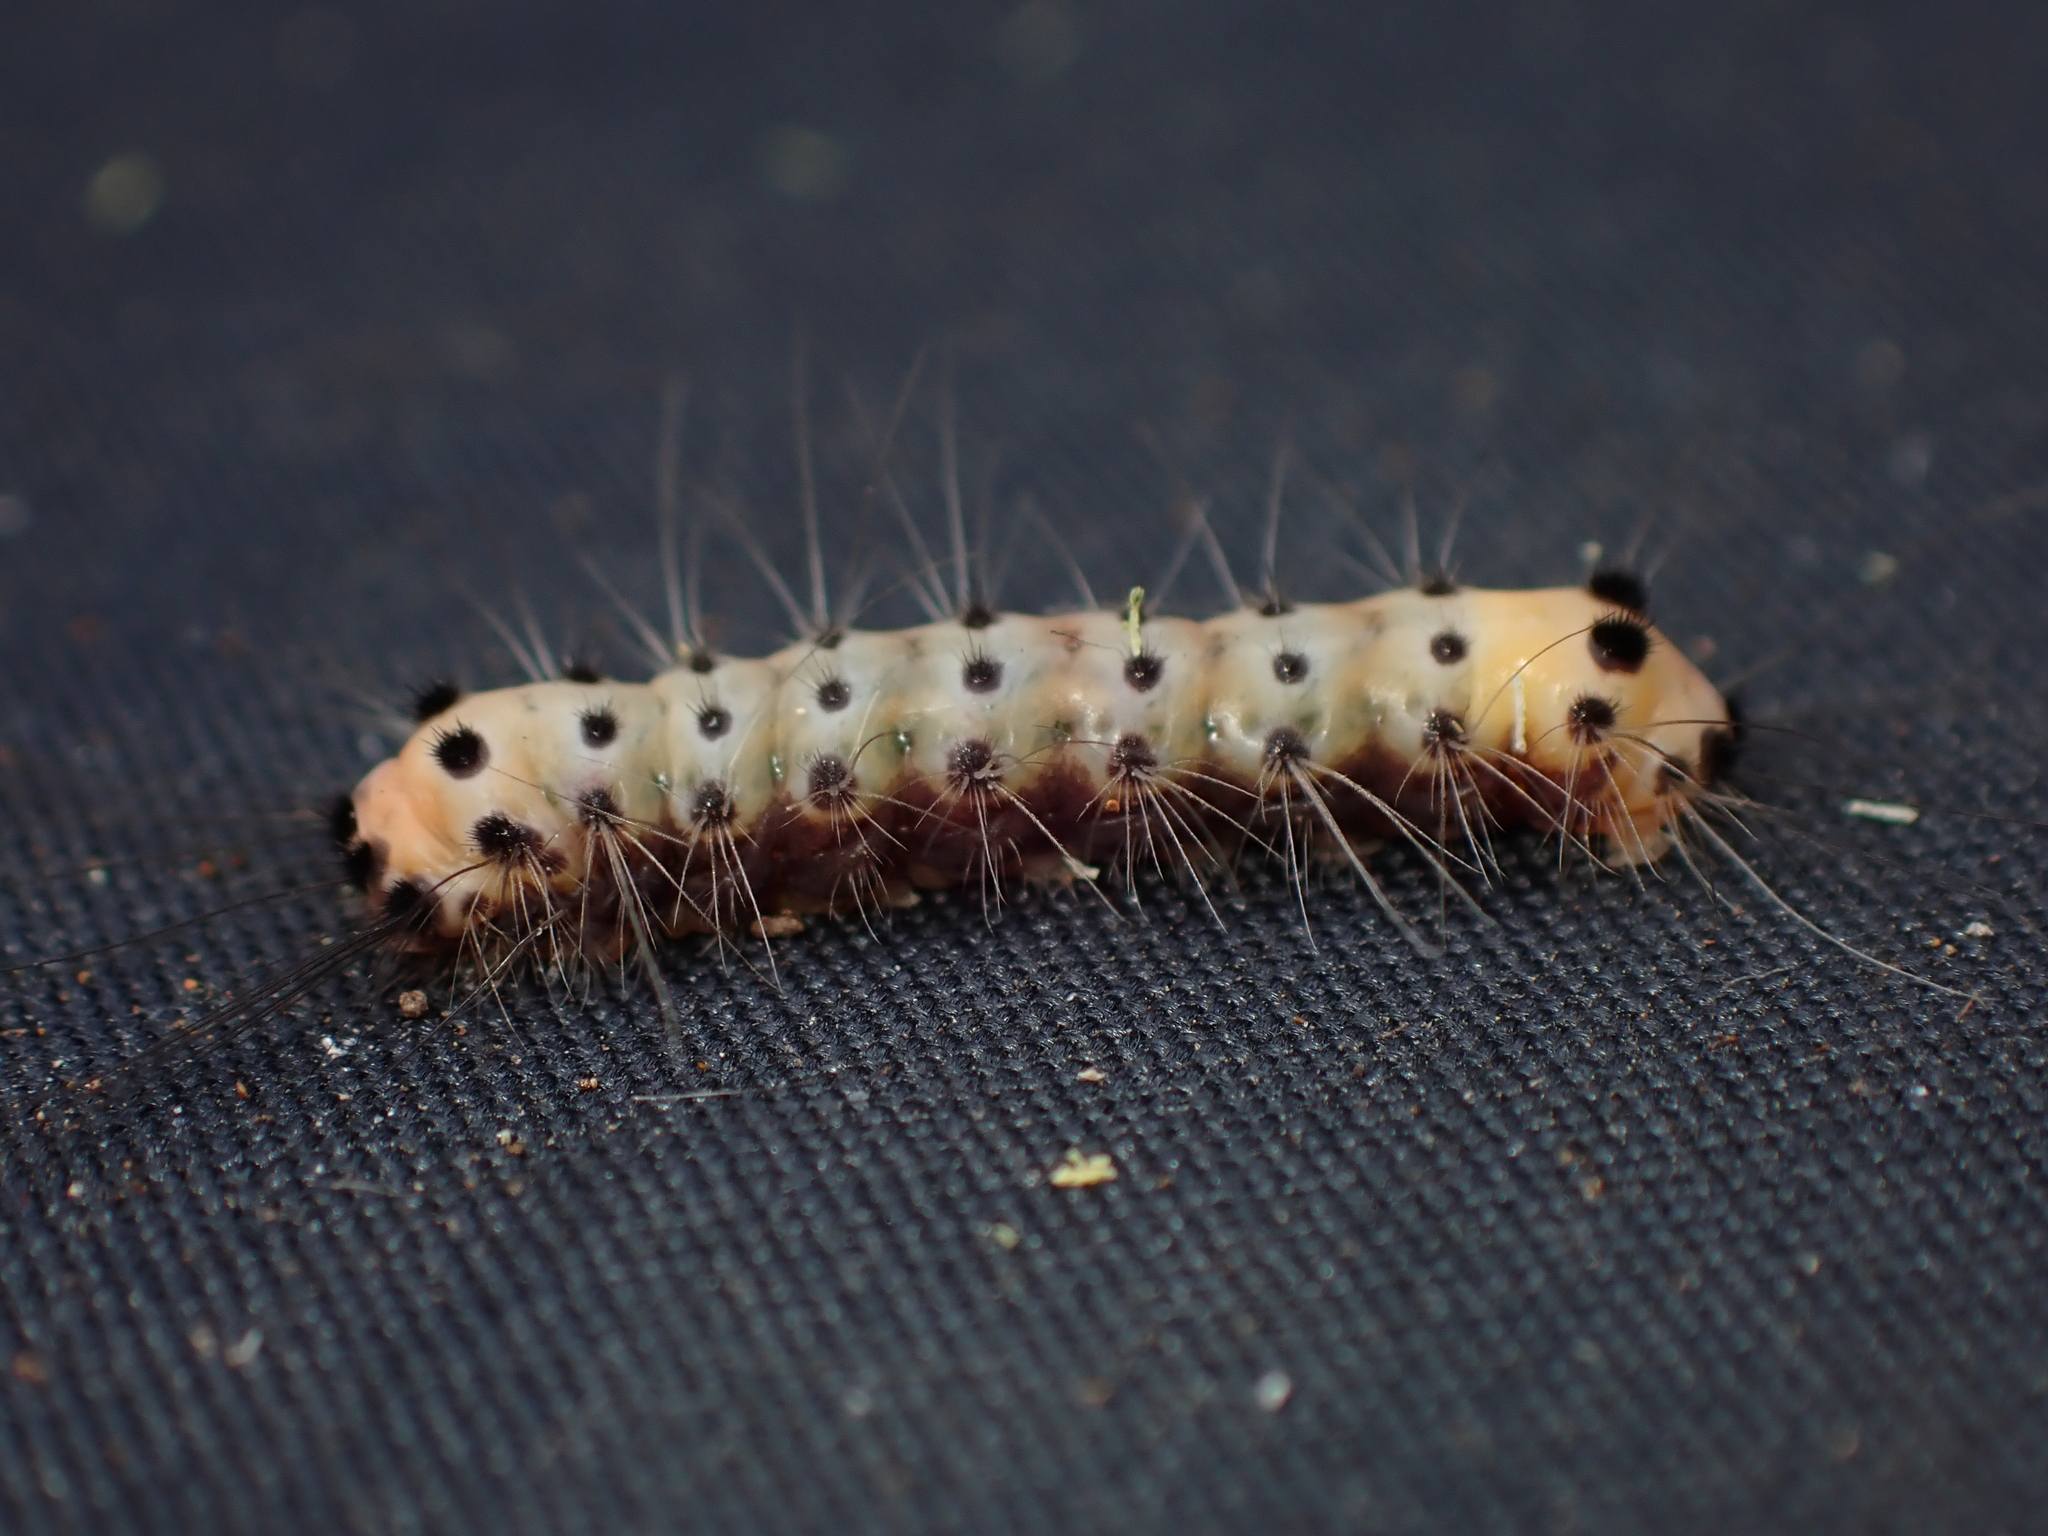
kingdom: Animalia
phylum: Arthropoda
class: Insecta
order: Lepidoptera
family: Zygaenidae
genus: Artona
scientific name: Artona martini
